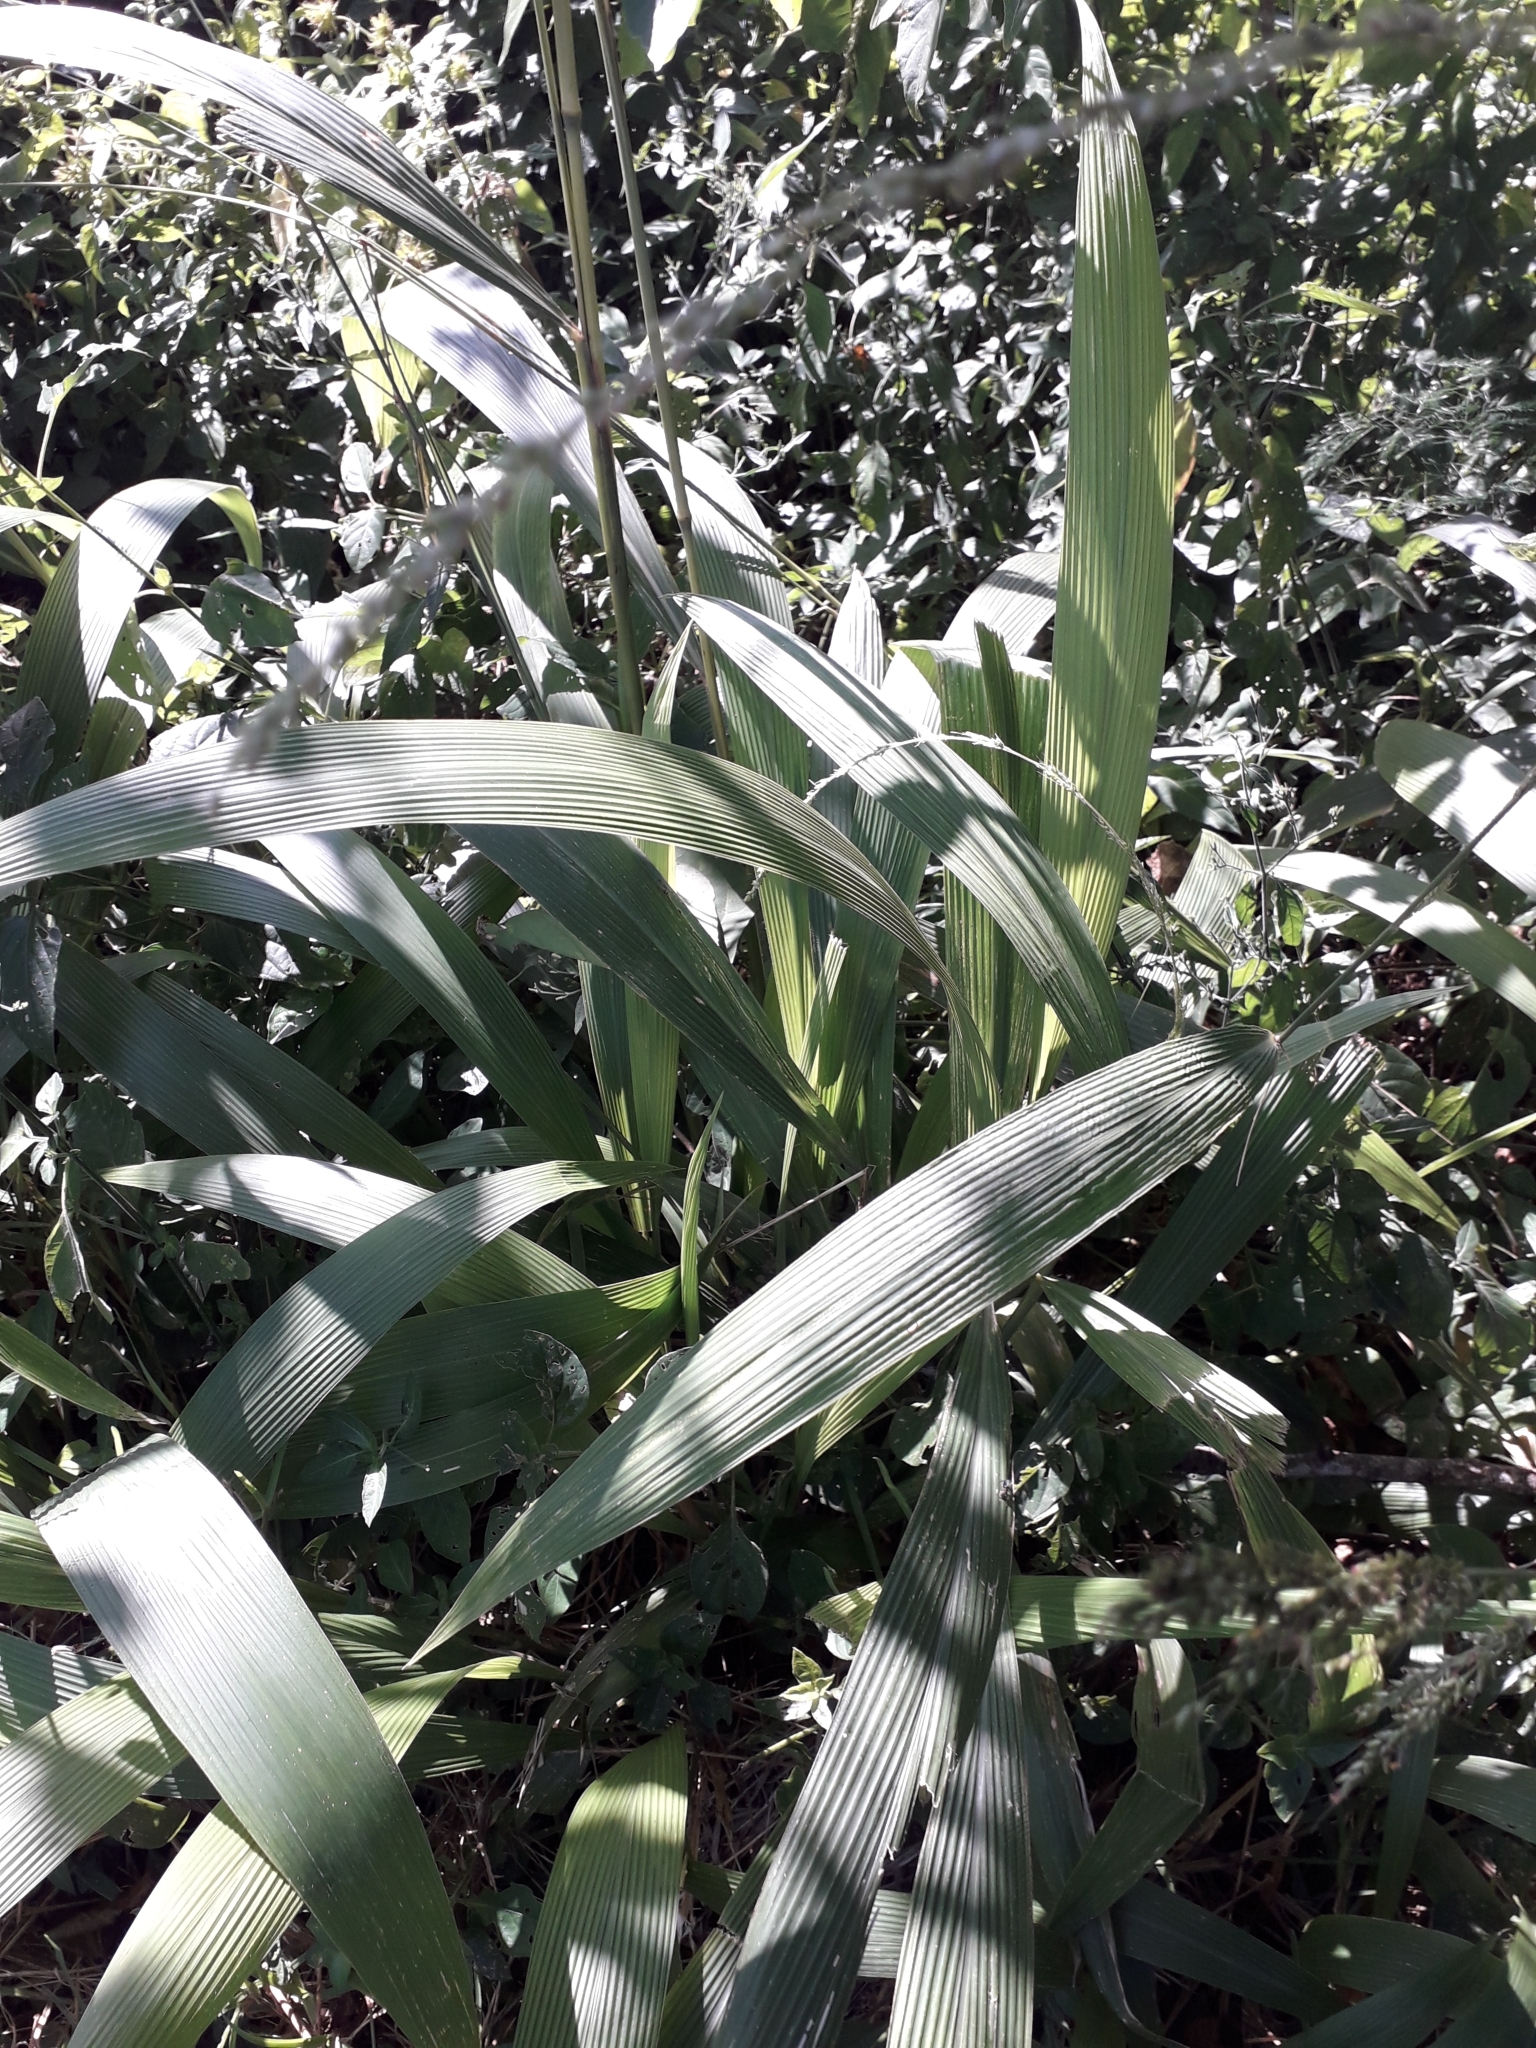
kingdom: Plantae
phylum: Tracheophyta
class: Liliopsida
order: Poales
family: Poaceae
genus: Setaria
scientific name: Setaria megaphylla
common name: Bigleaf bristlegrass
